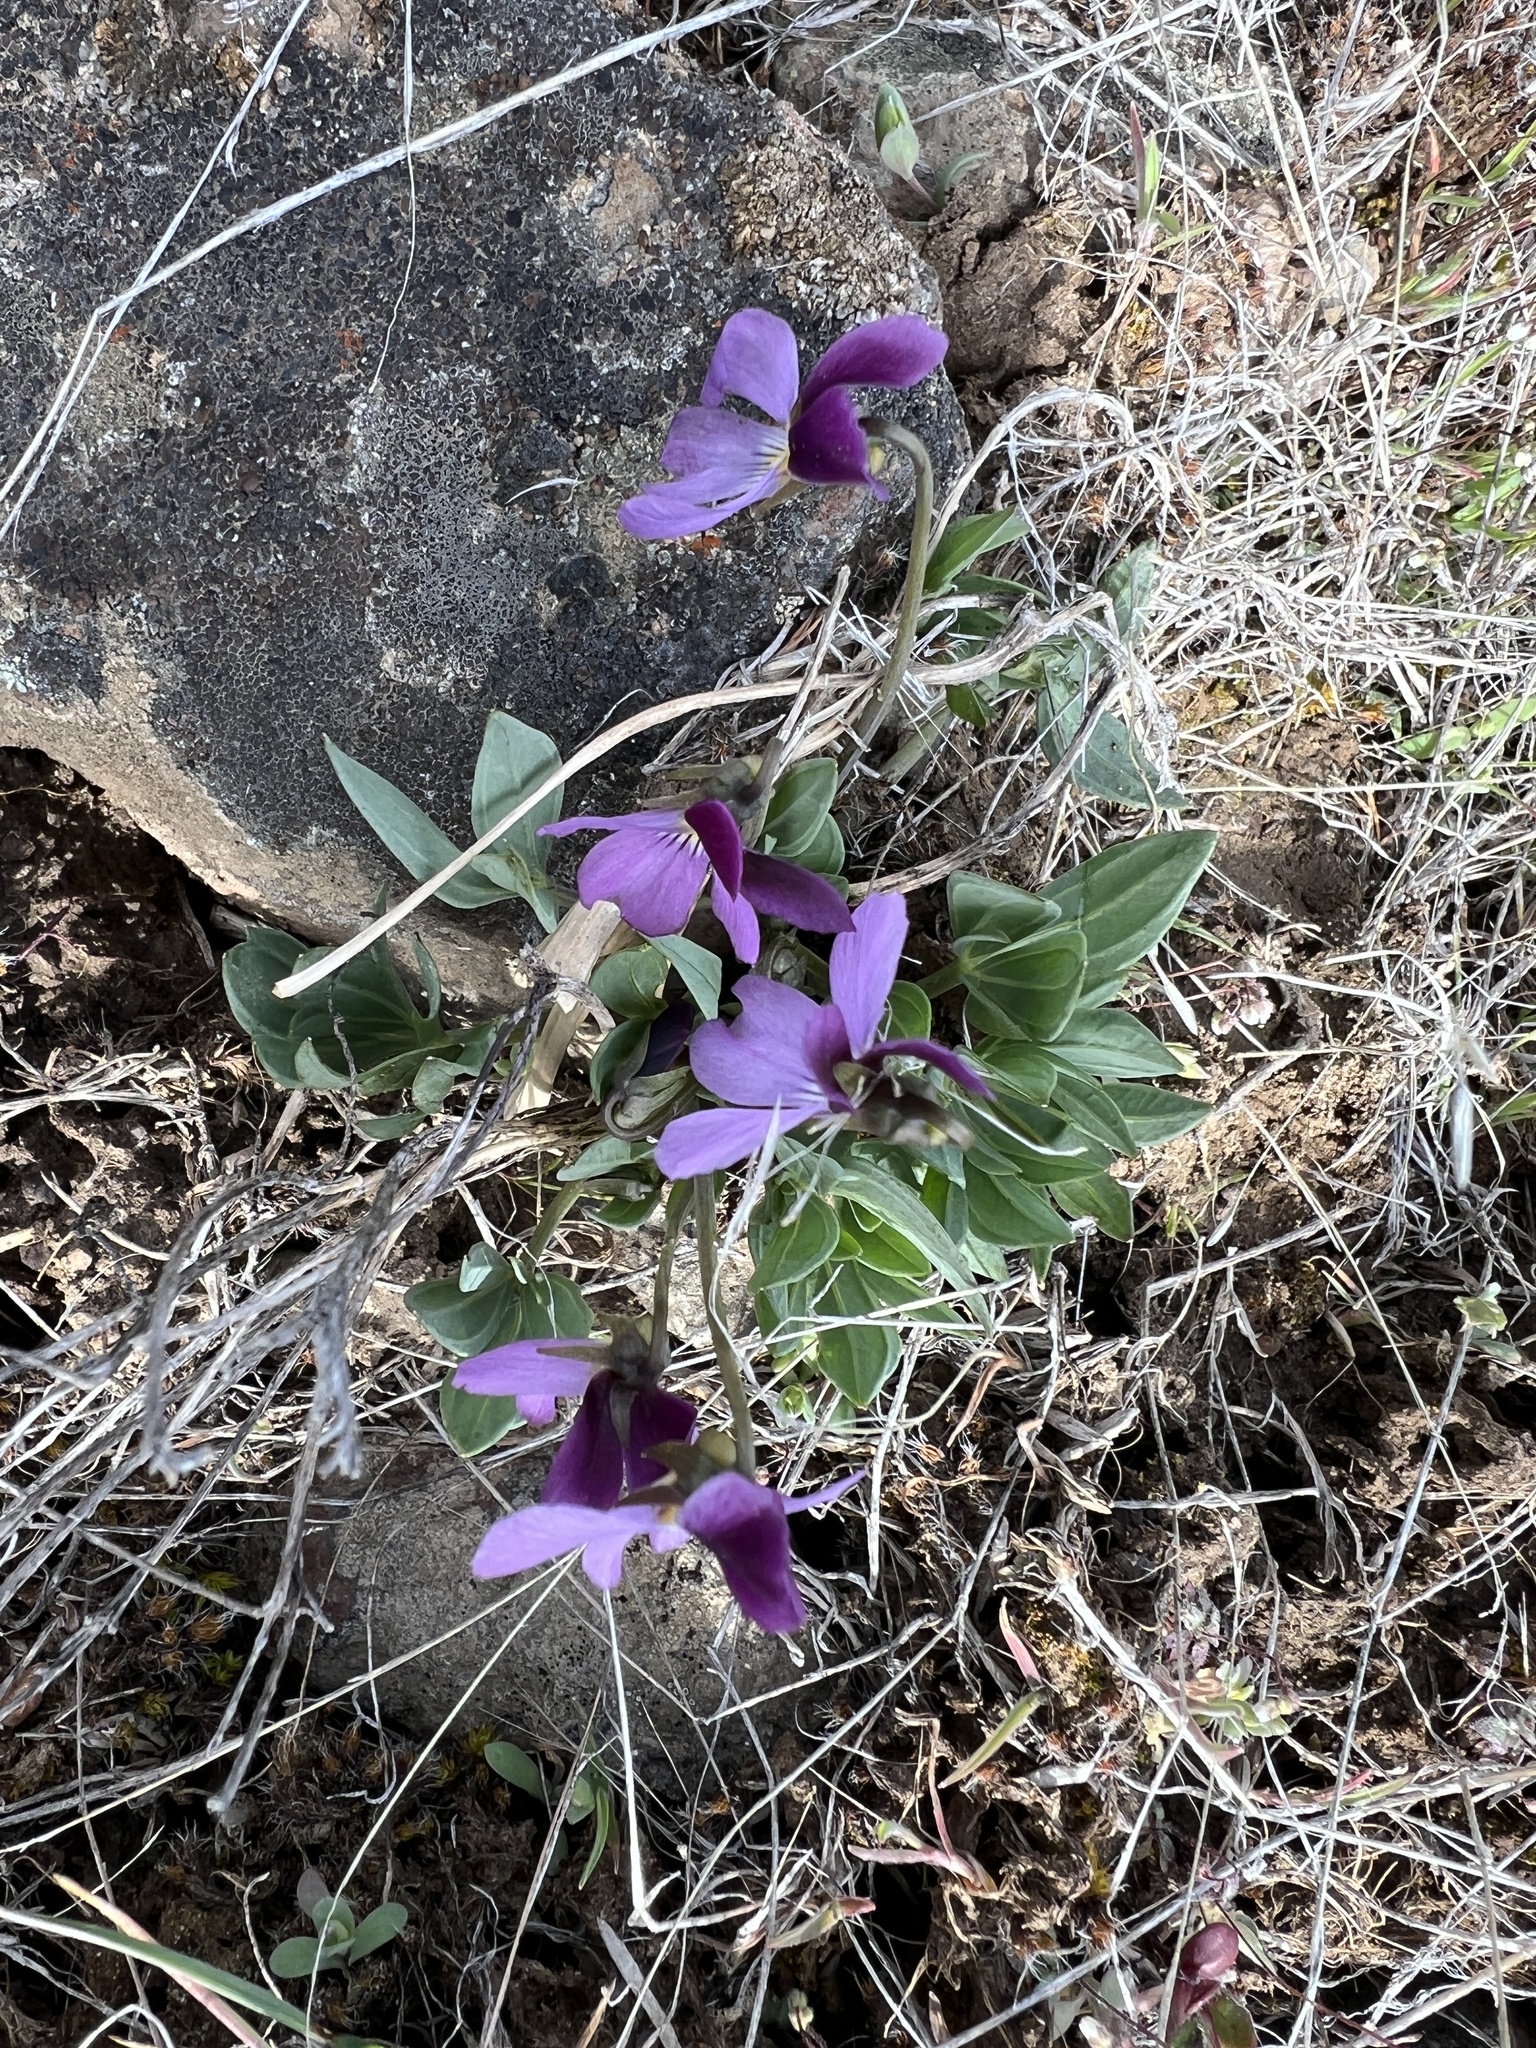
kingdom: Plantae
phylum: Tracheophyta
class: Magnoliopsida
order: Malpighiales
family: Violaceae
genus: Viola
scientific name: Viola trinervata
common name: Sagebrush violet
